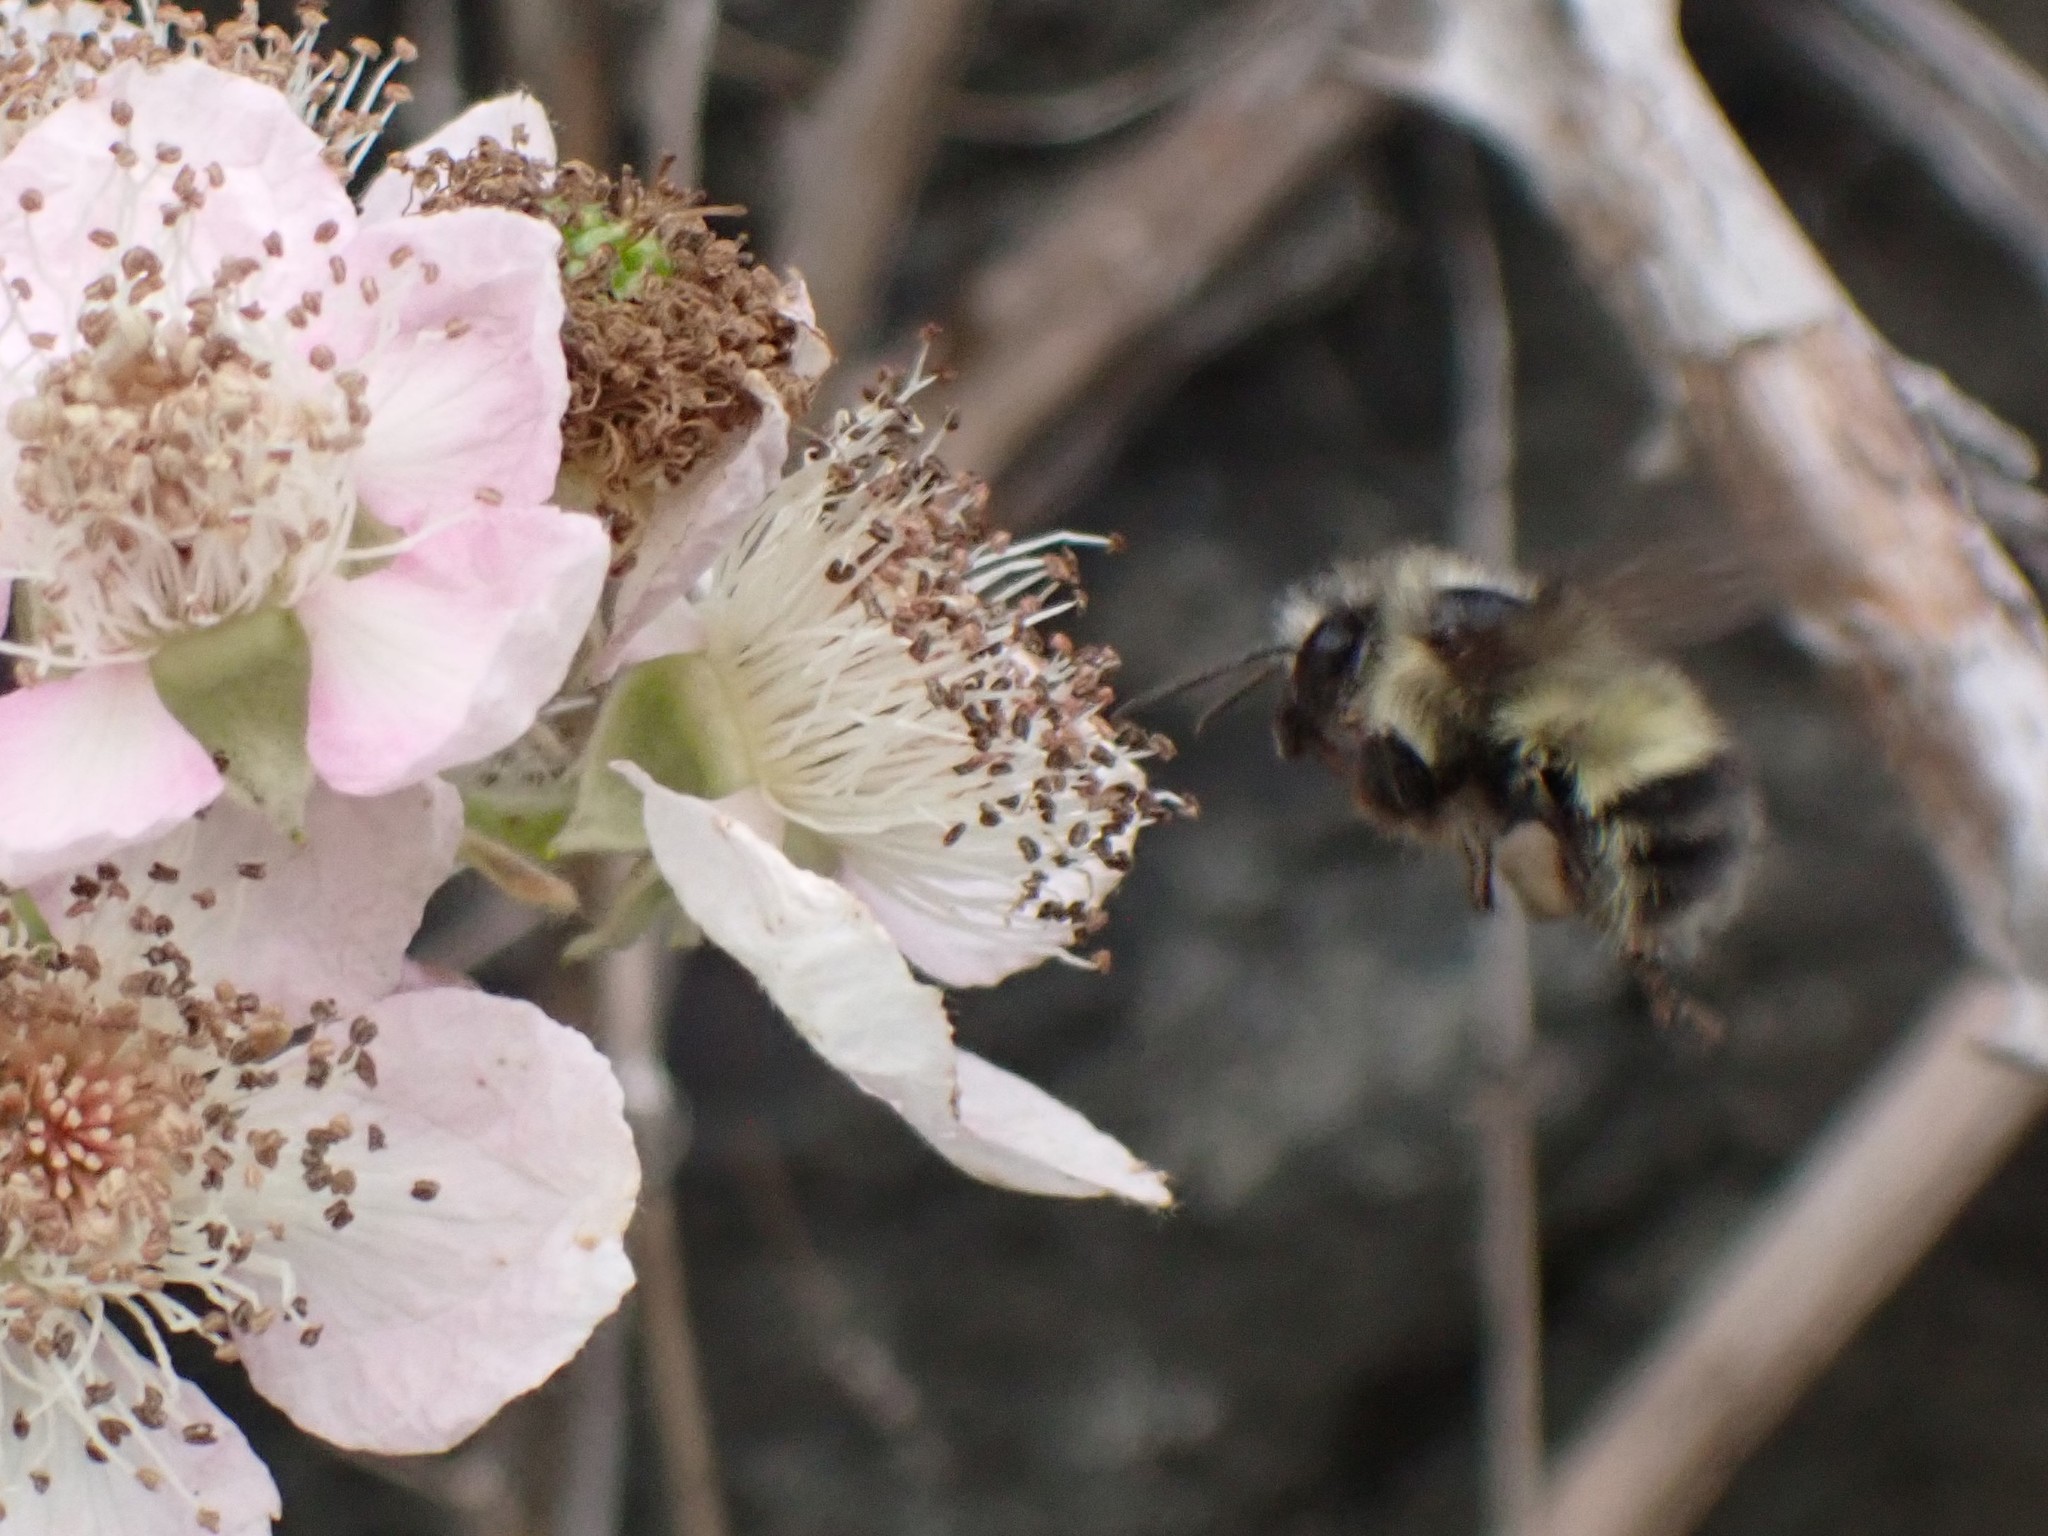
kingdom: Animalia
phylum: Arthropoda
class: Insecta
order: Hymenoptera
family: Apidae
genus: Bombus
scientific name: Bombus flavifrons
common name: Yellow head bumble bee
